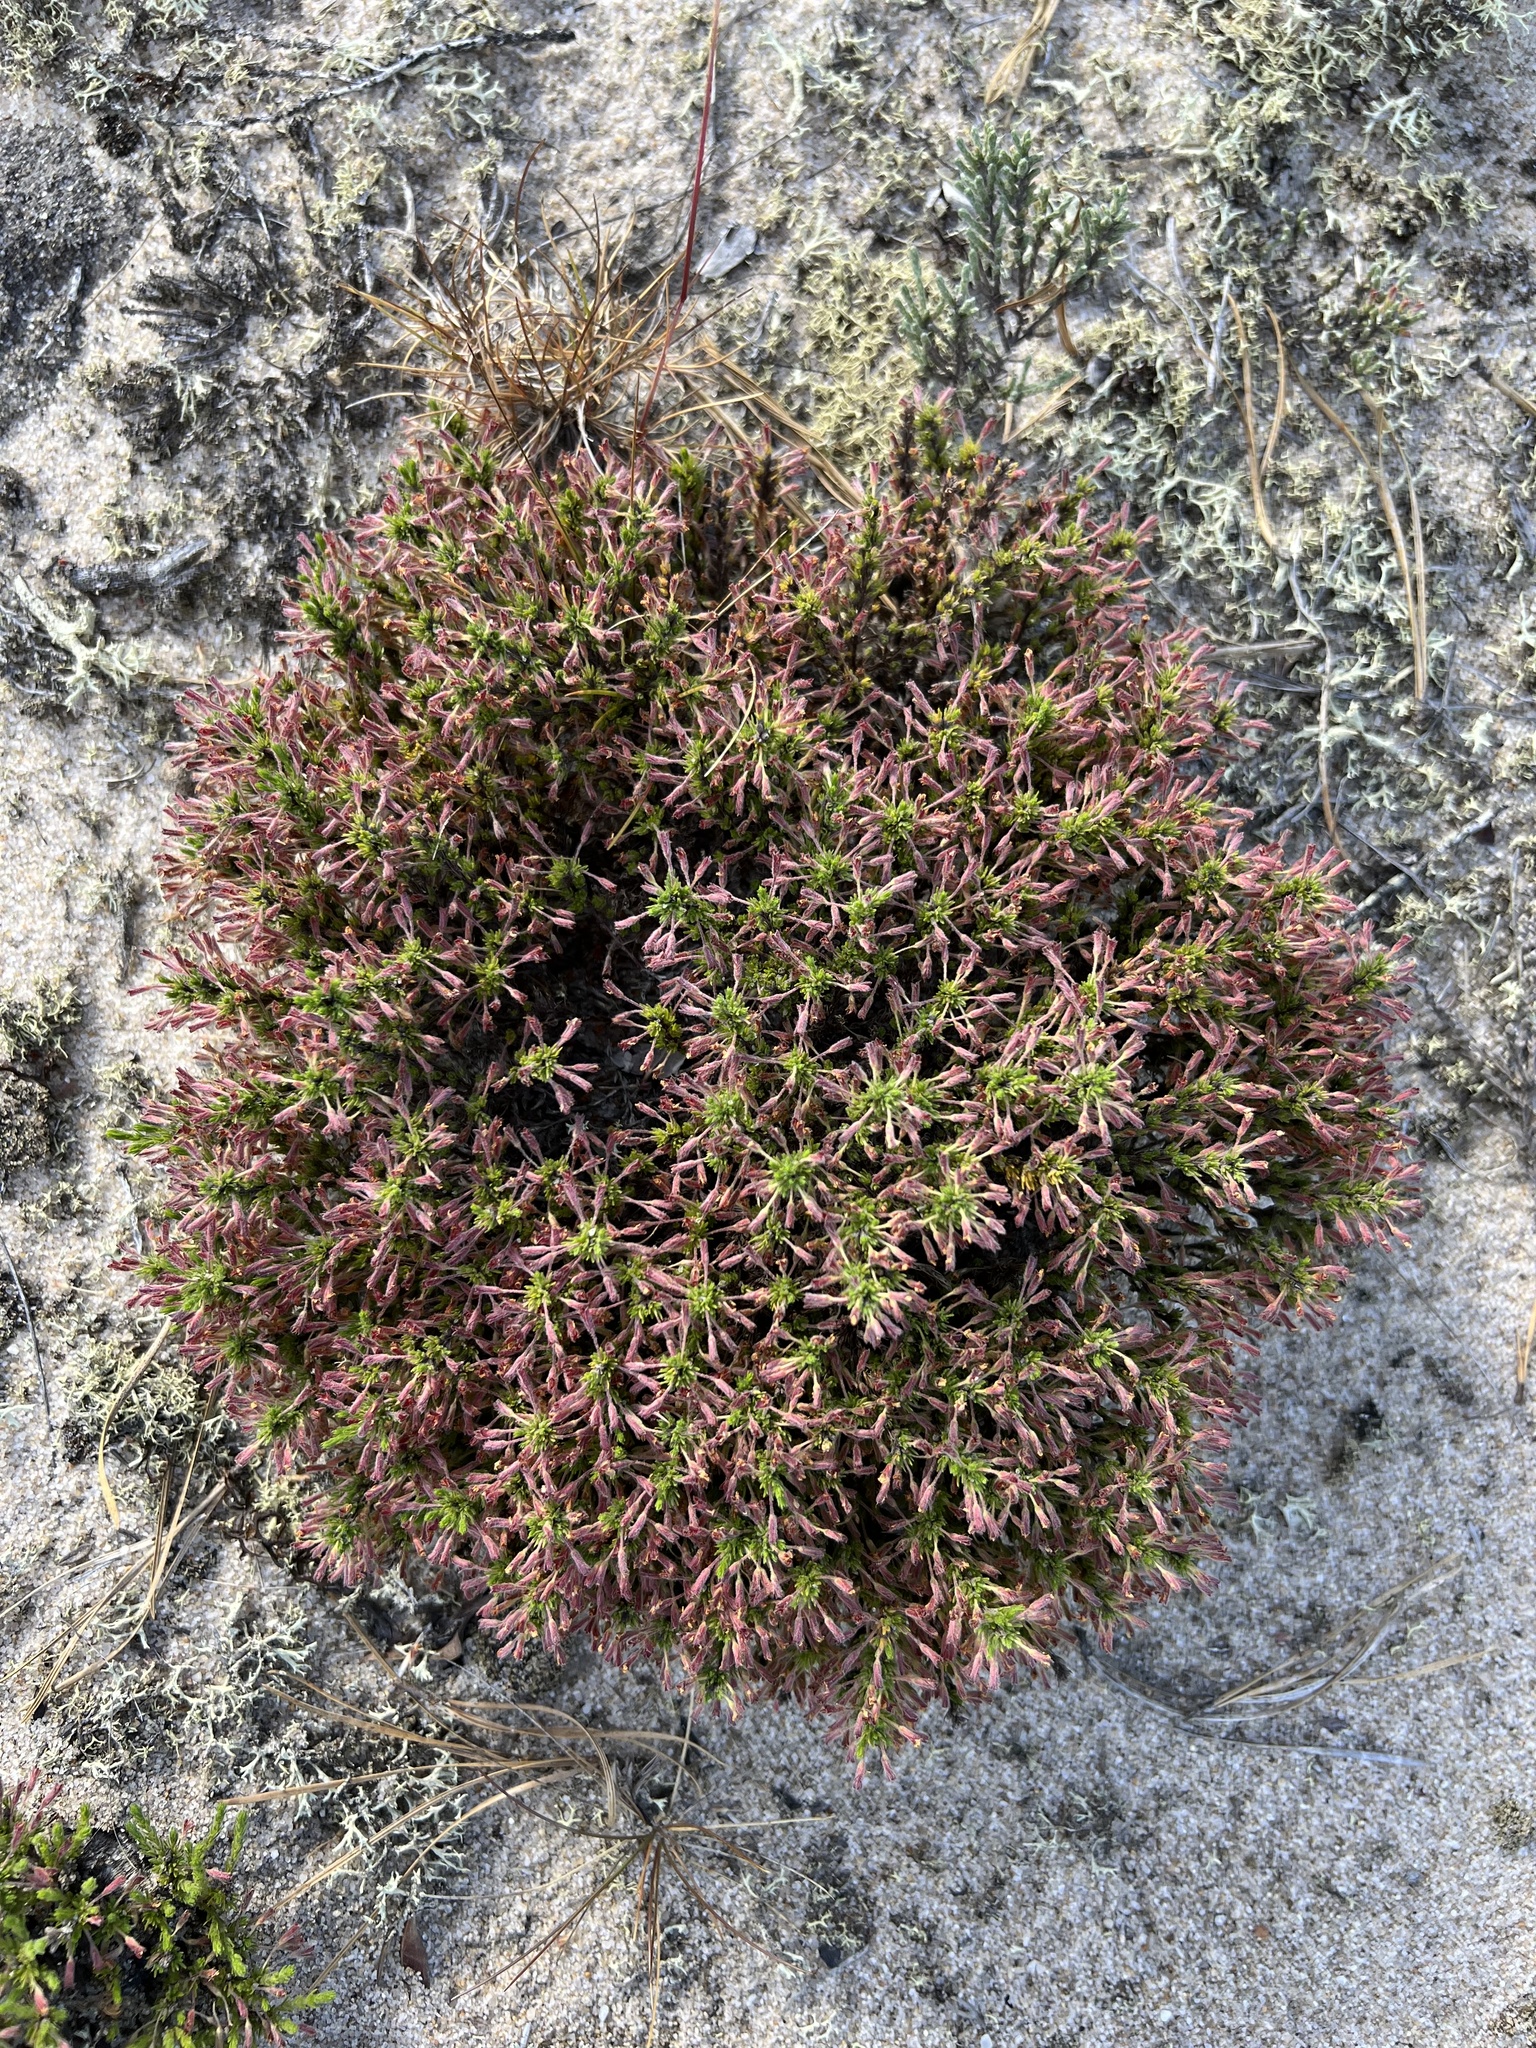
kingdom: Plantae
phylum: Tracheophyta
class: Magnoliopsida
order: Malvales
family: Cistaceae
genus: Hudsonia
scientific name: Hudsonia ericoides
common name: Golden-heather
